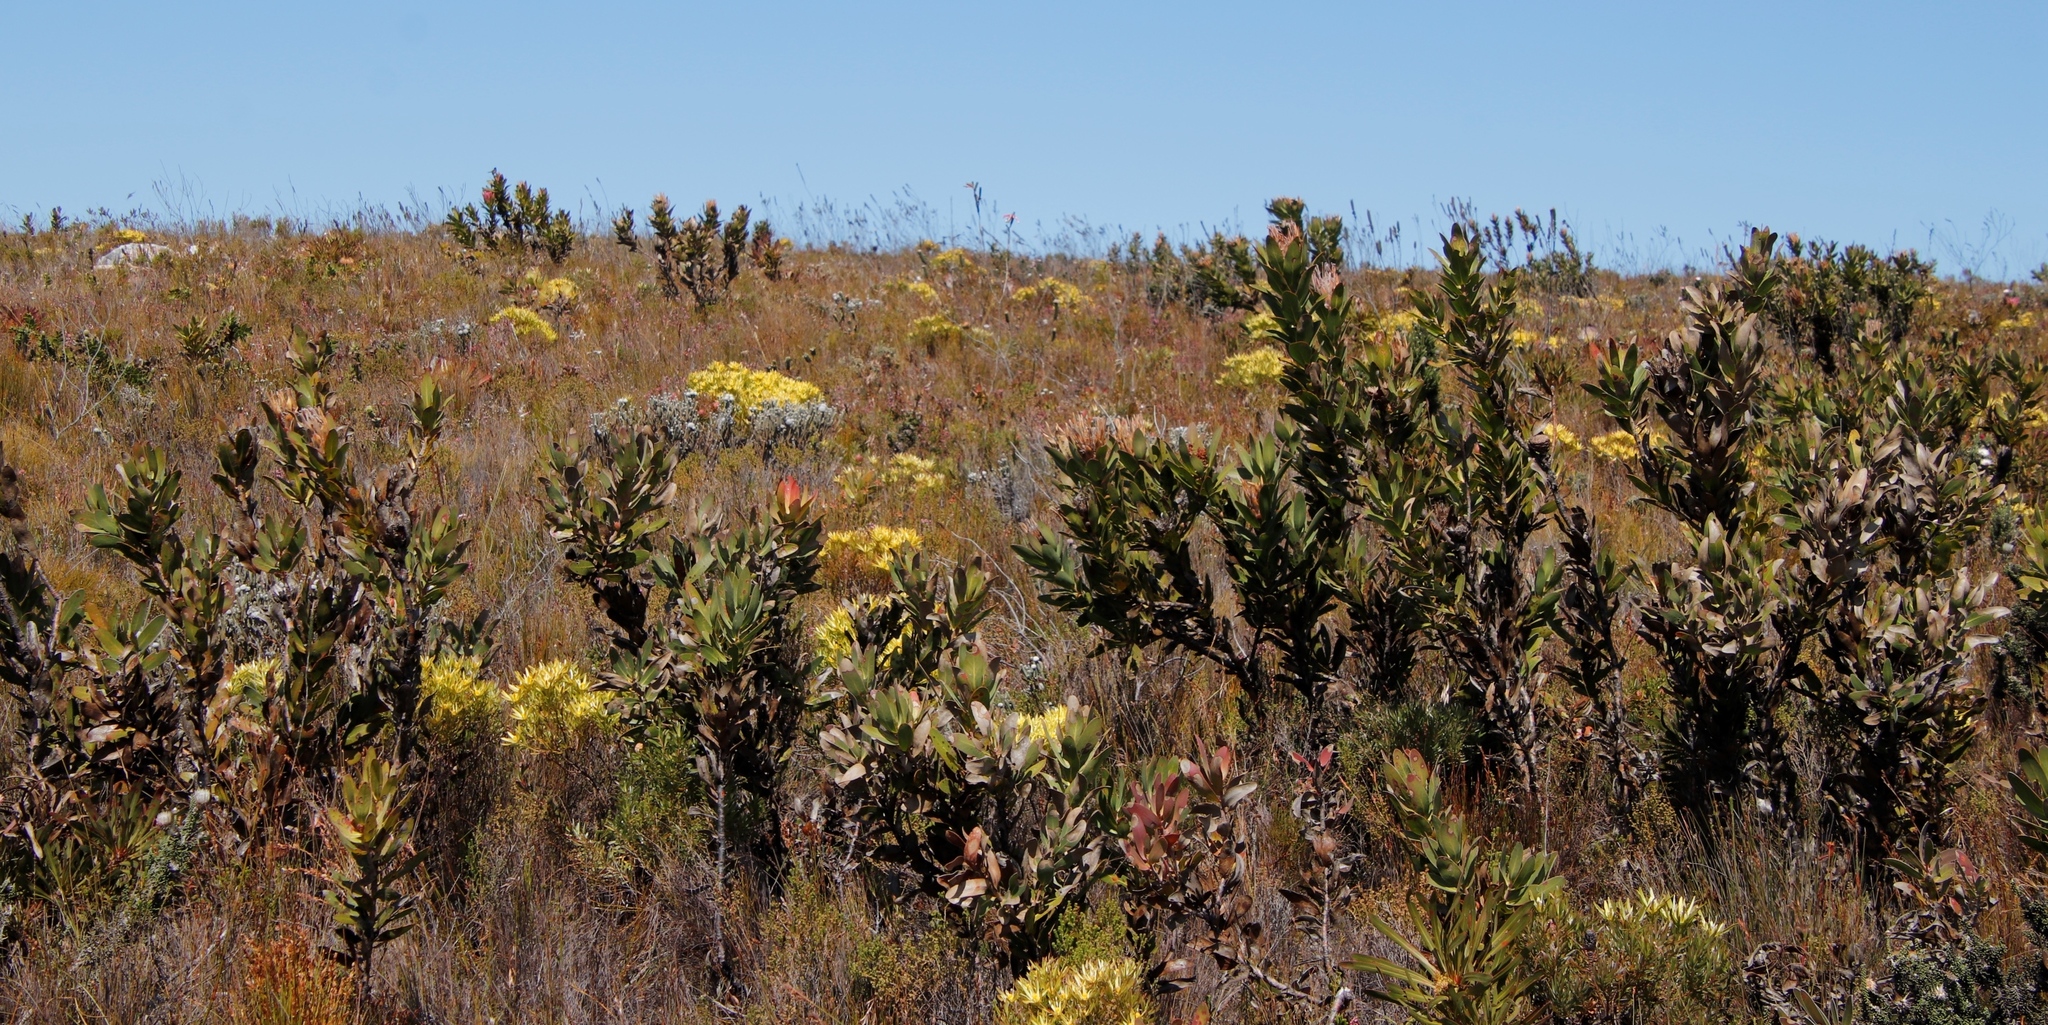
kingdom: Plantae
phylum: Tracheophyta
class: Magnoliopsida
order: Proteales
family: Proteaceae
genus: Protea
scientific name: Protea compacta
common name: Bot river protea
